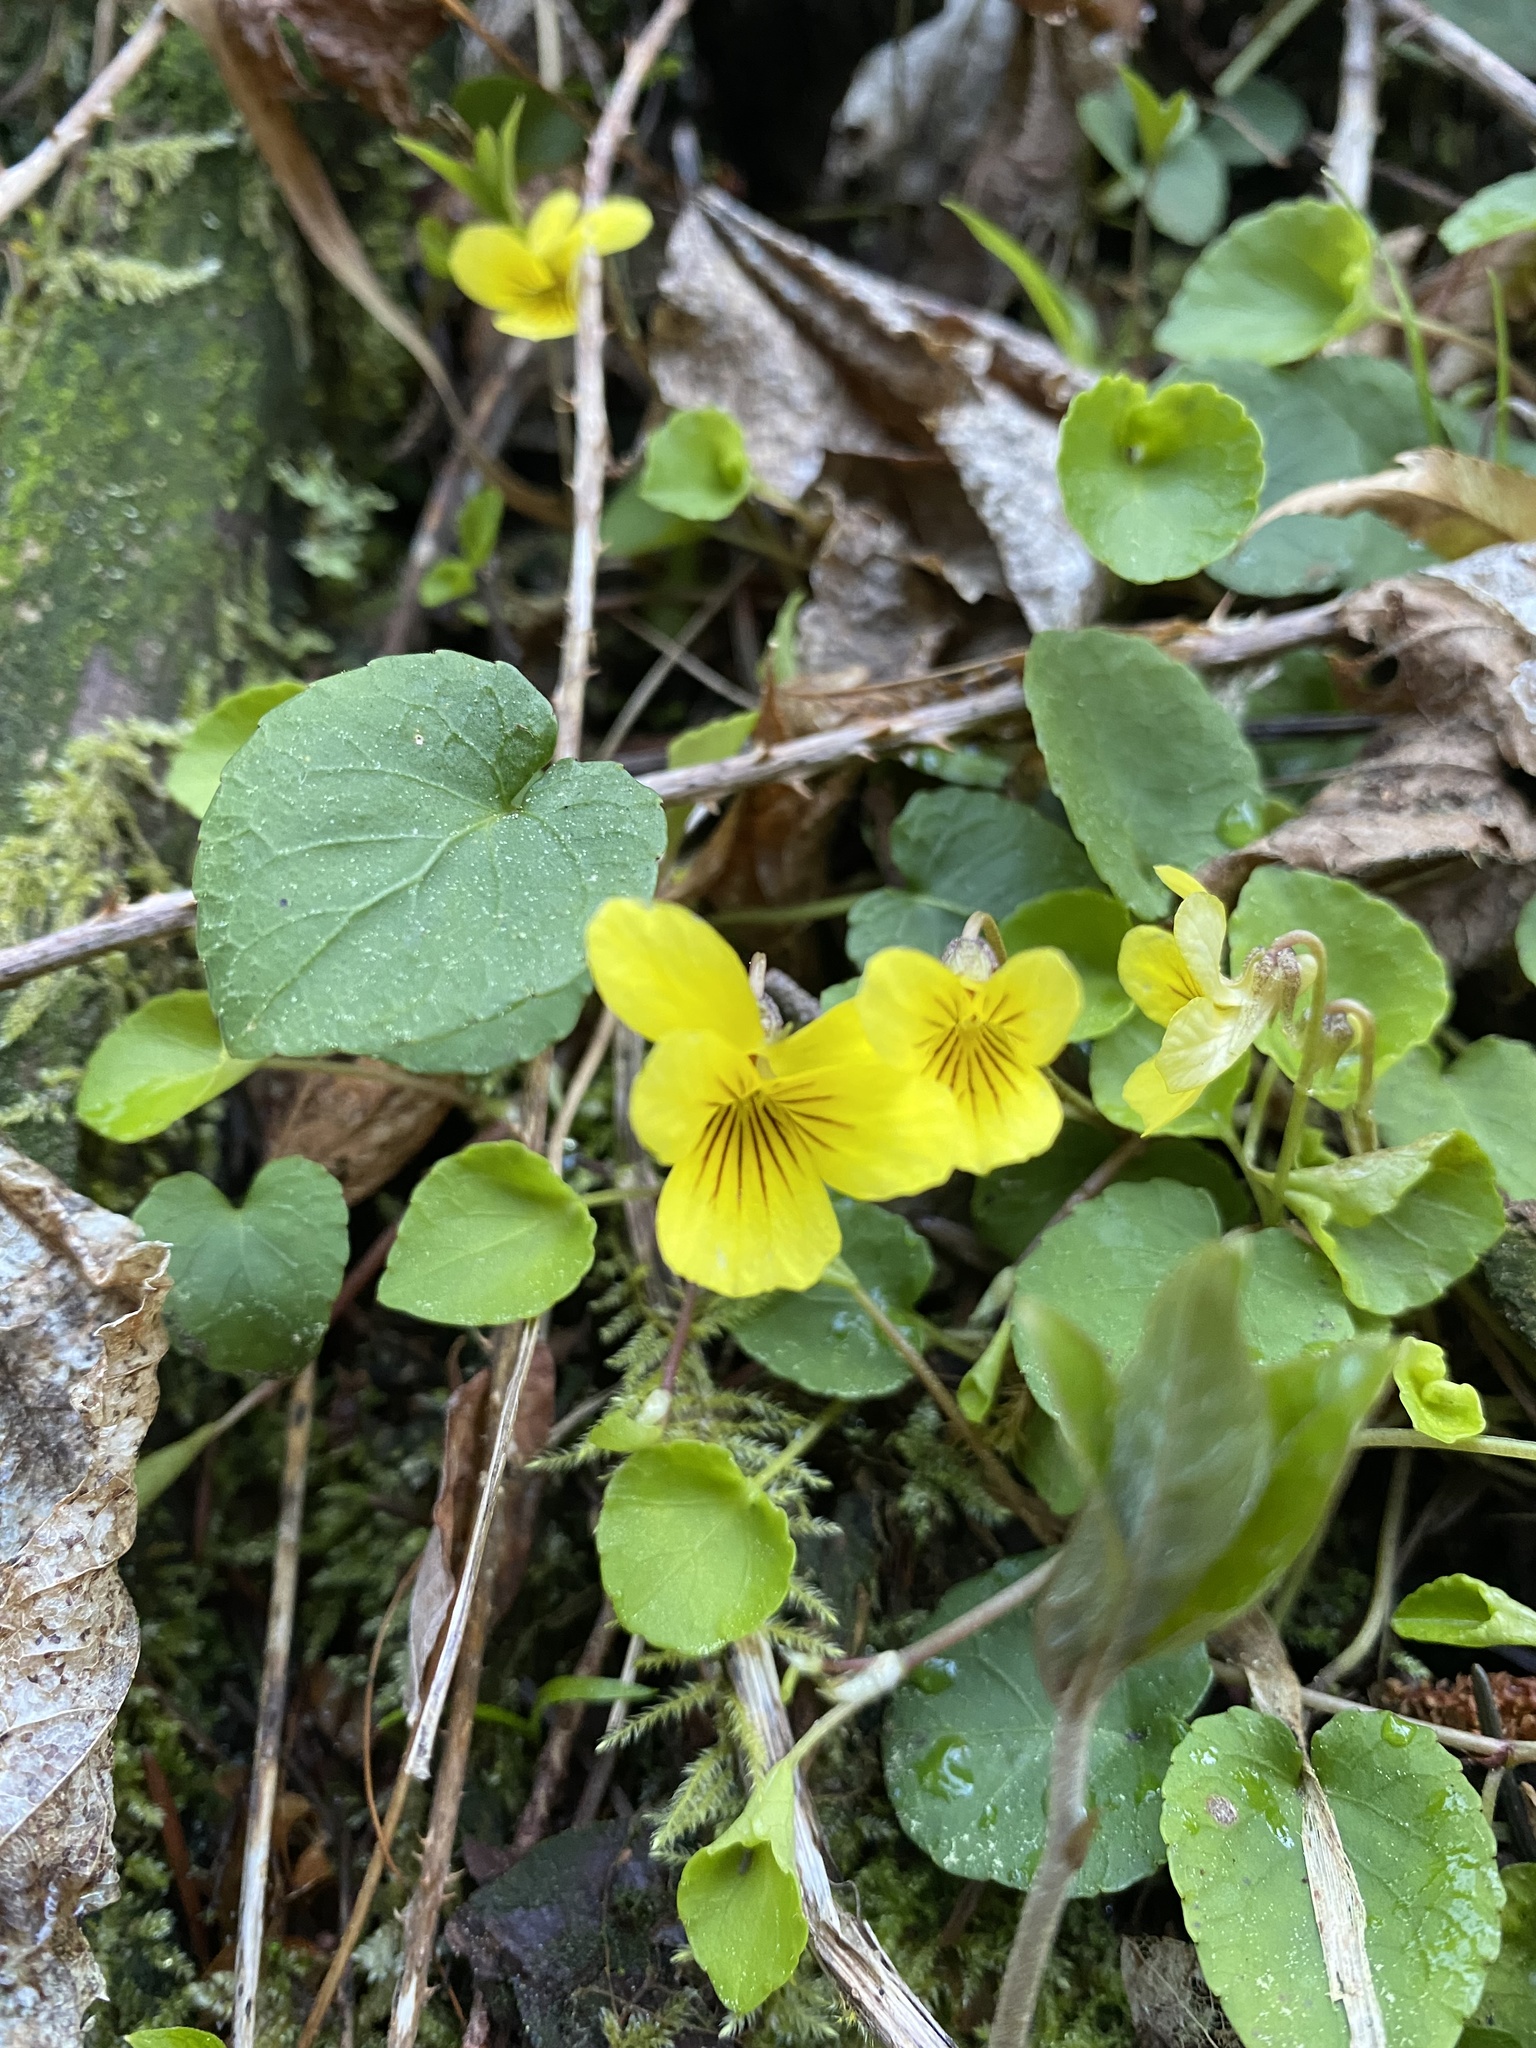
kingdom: Plantae
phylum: Tracheophyta
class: Magnoliopsida
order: Malpighiales
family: Violaceae
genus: Viola
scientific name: Viola sempervirens
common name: Evergreen violet
